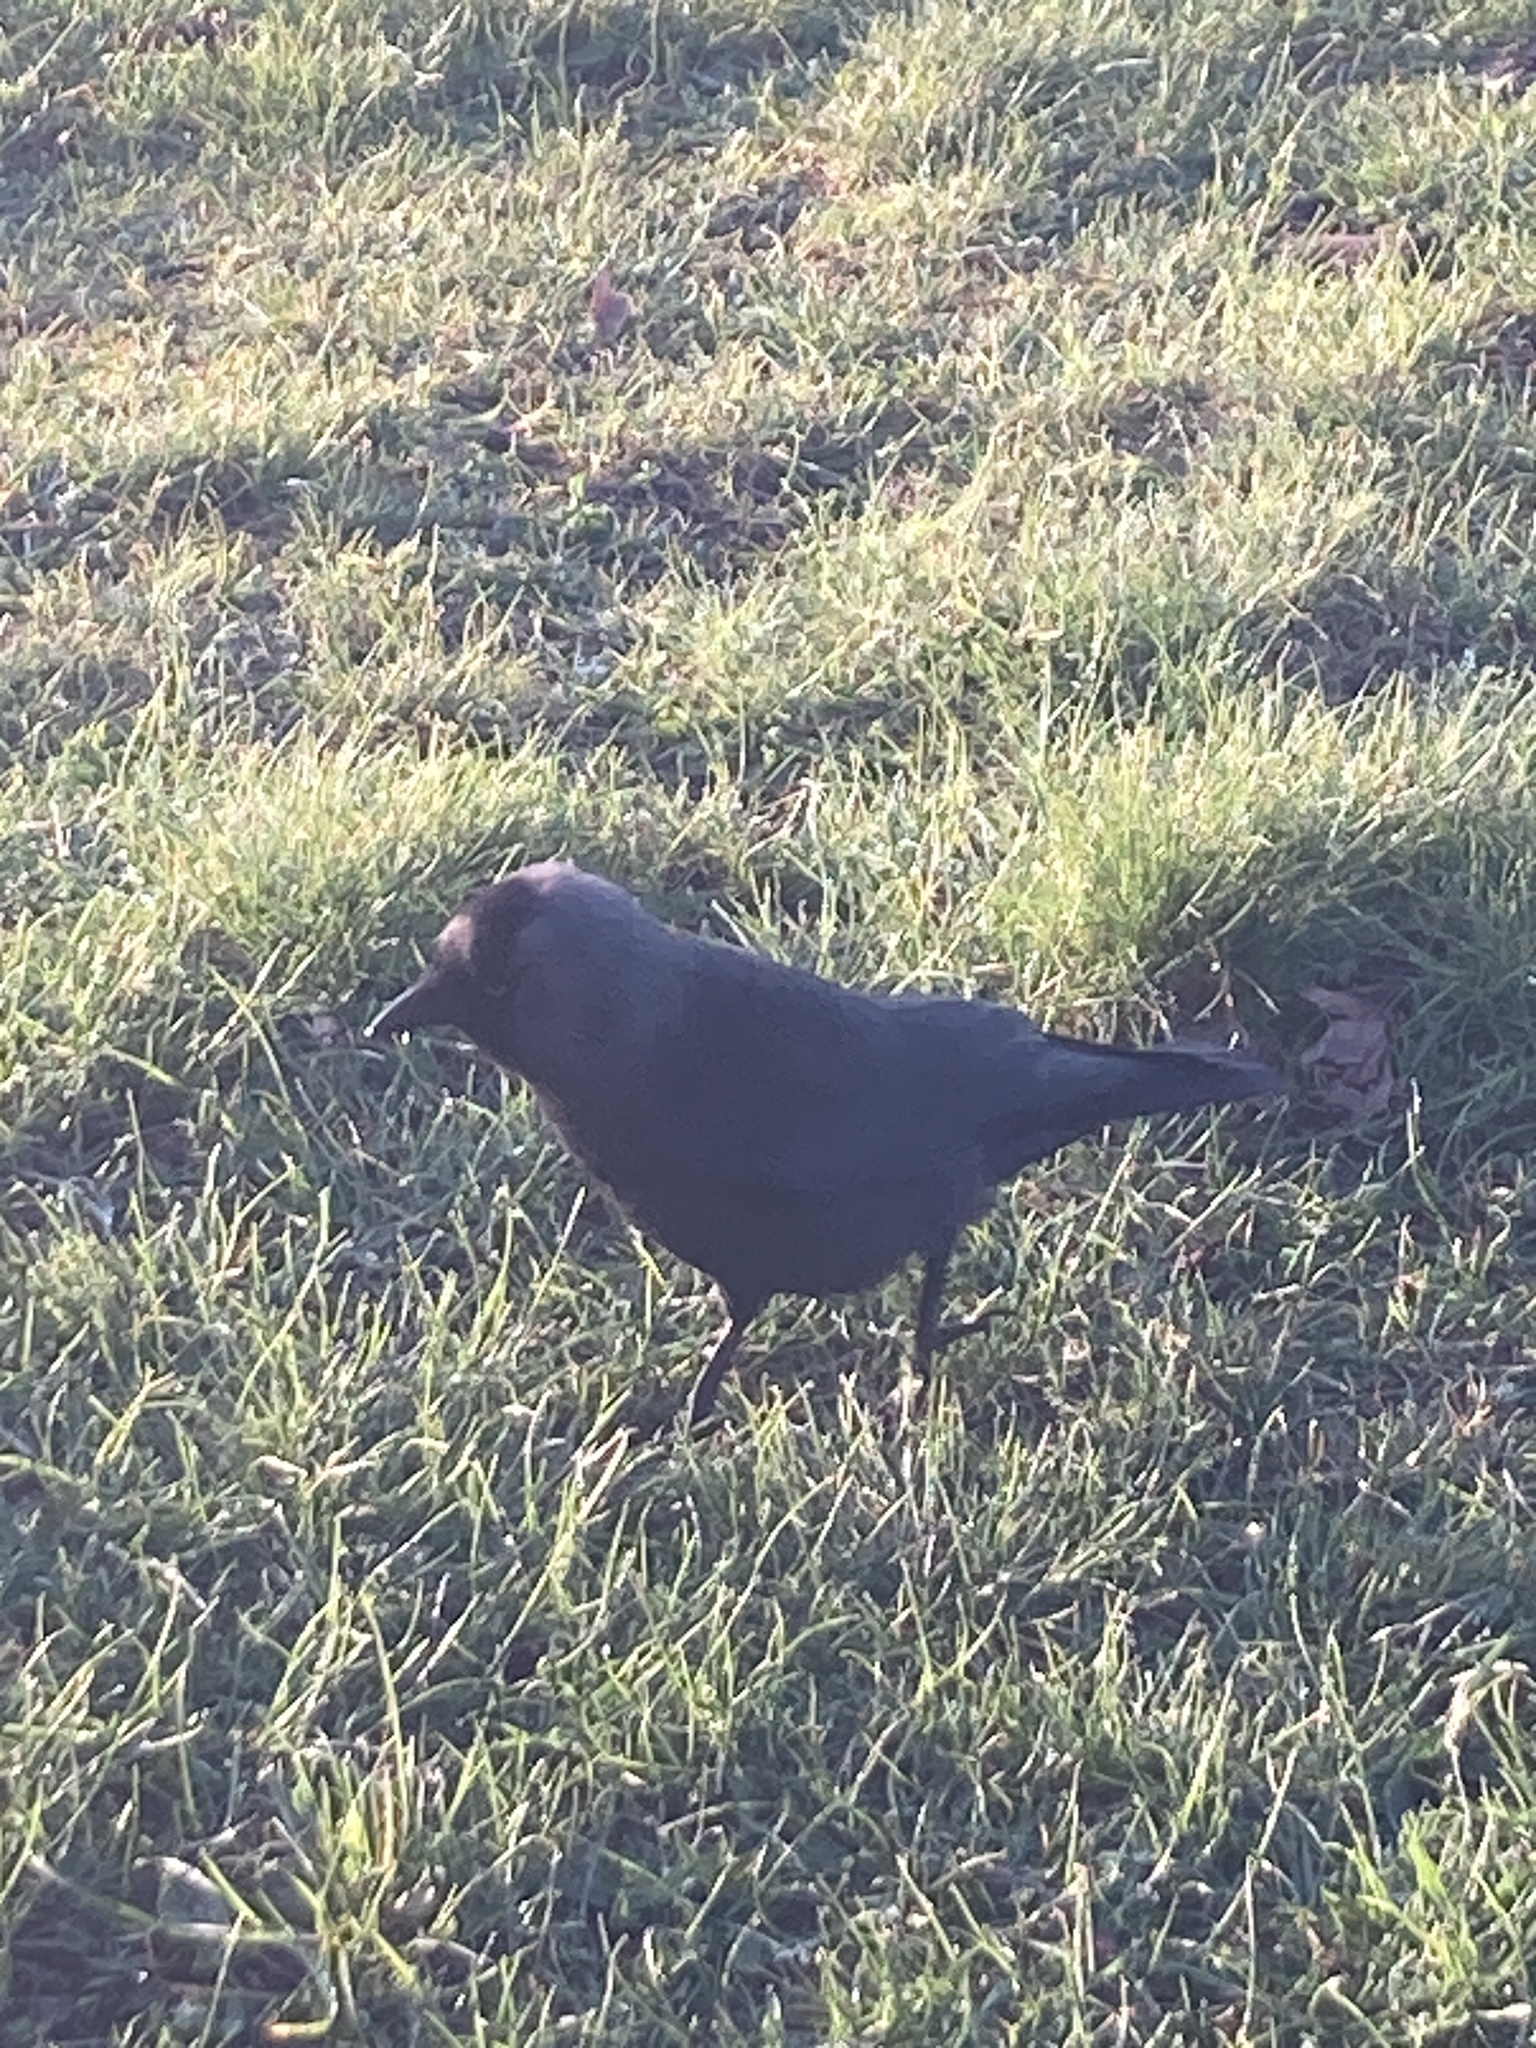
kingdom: Animalia
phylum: Chordata
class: Aves
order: Passeriformes
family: Corvidae
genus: Coloeus
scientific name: Coloeus monedula
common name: Western jackdaw
